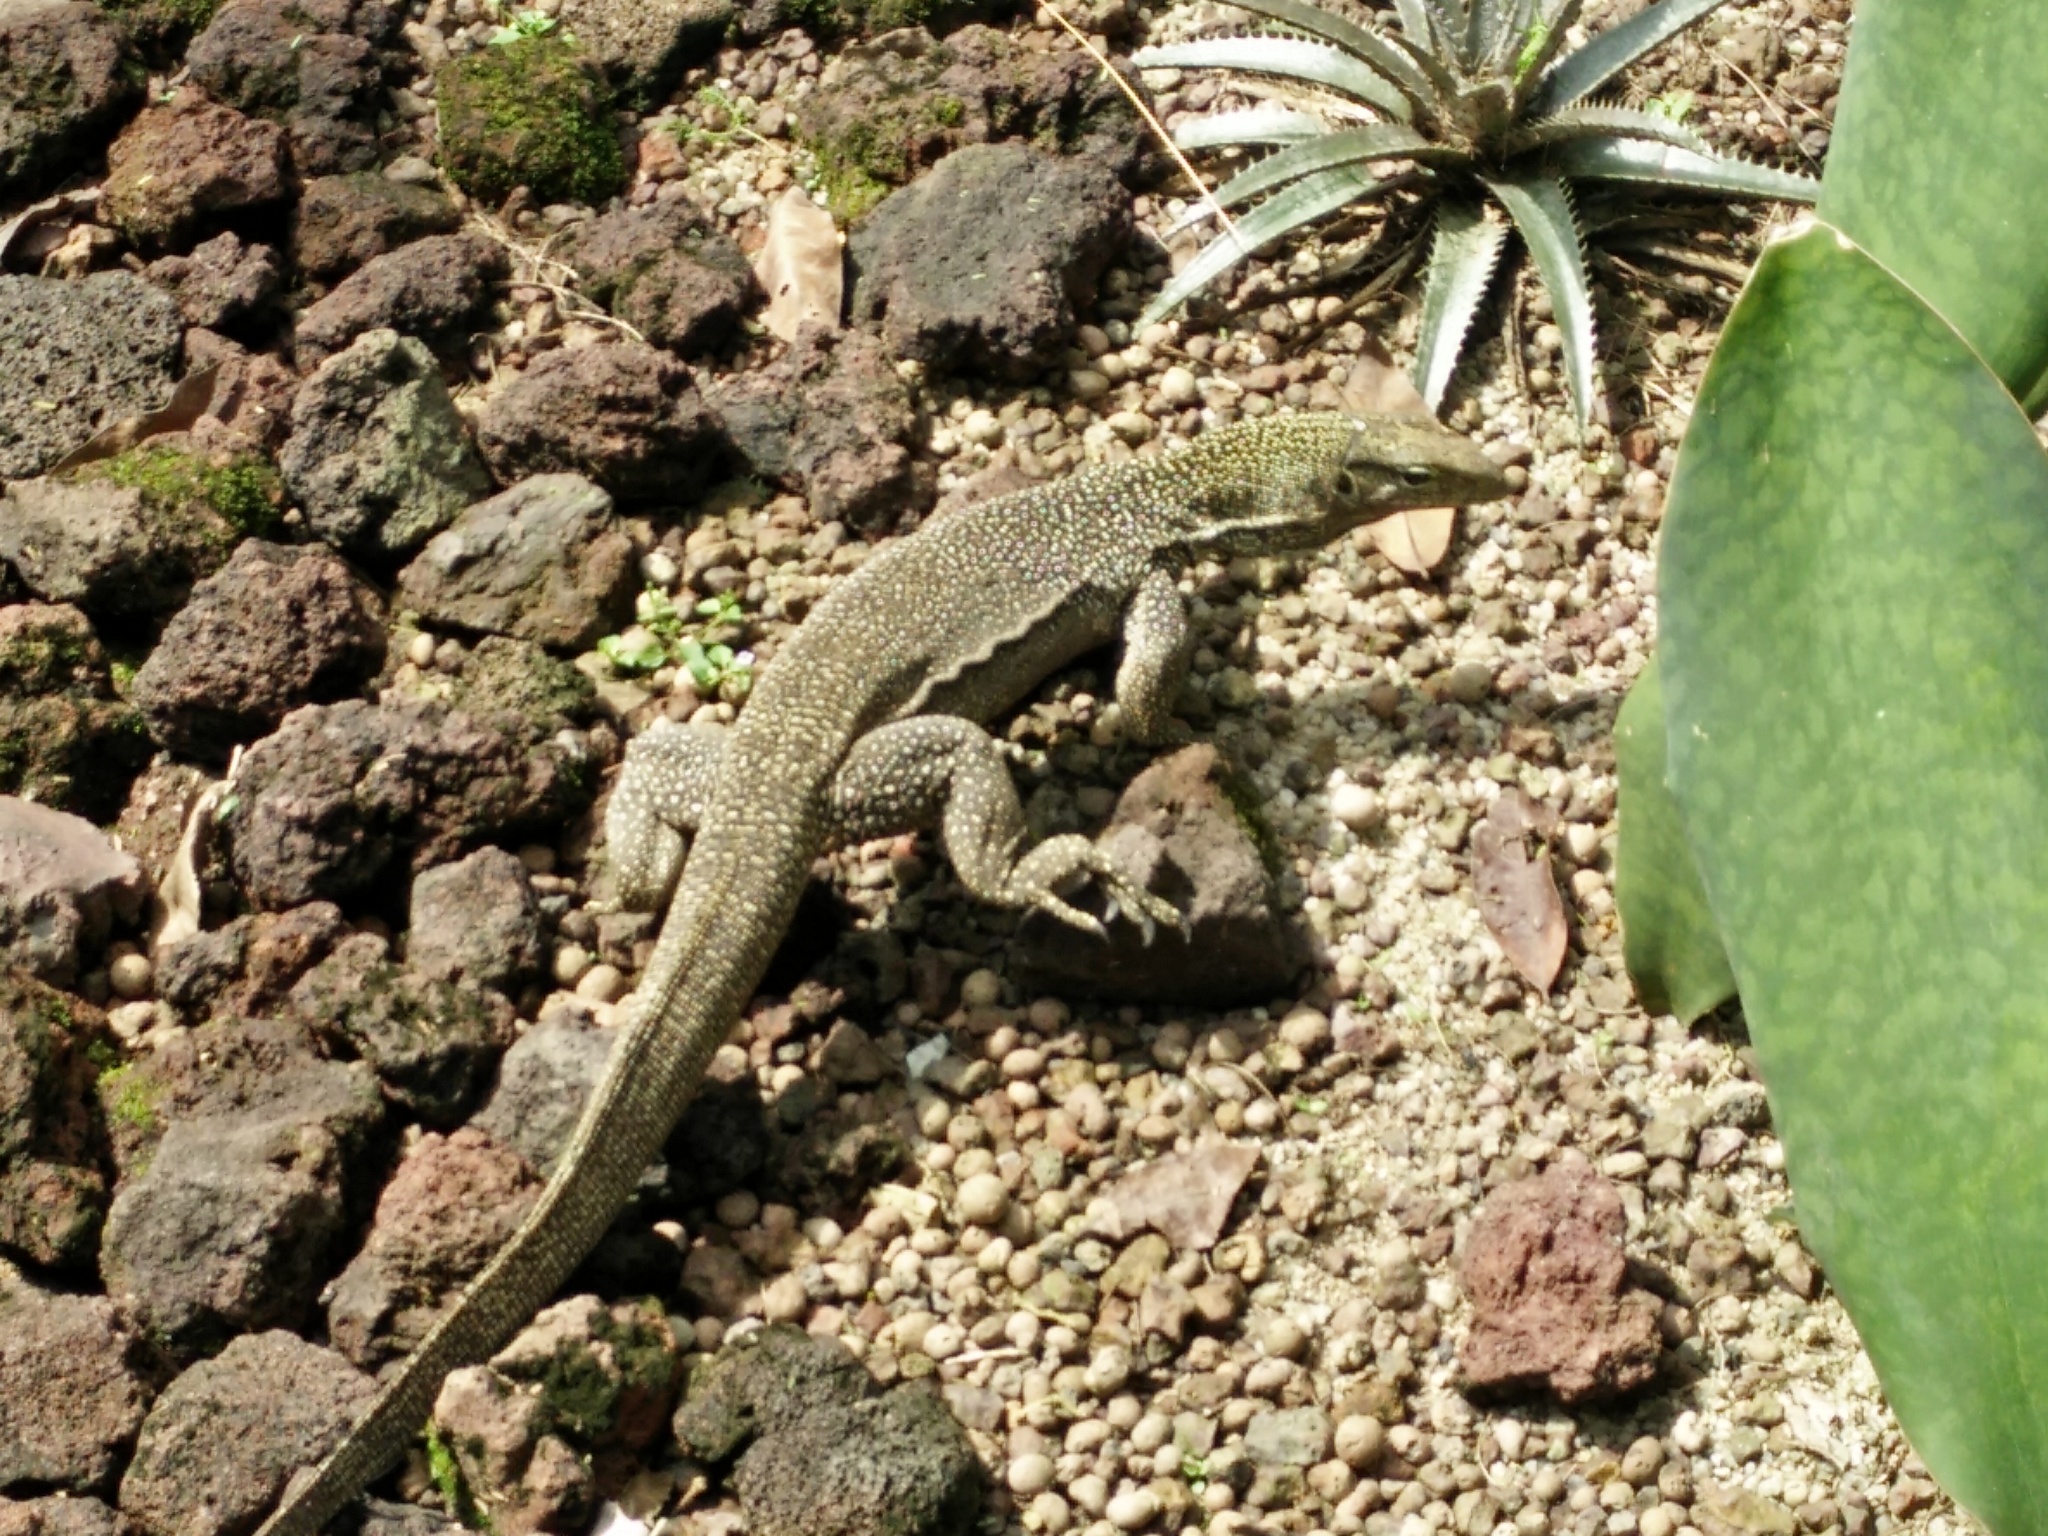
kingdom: Animalia
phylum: Chordata
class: Squamata
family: Varanidae
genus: Varanus
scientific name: Varanus nebulosus
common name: Clouded monitor
